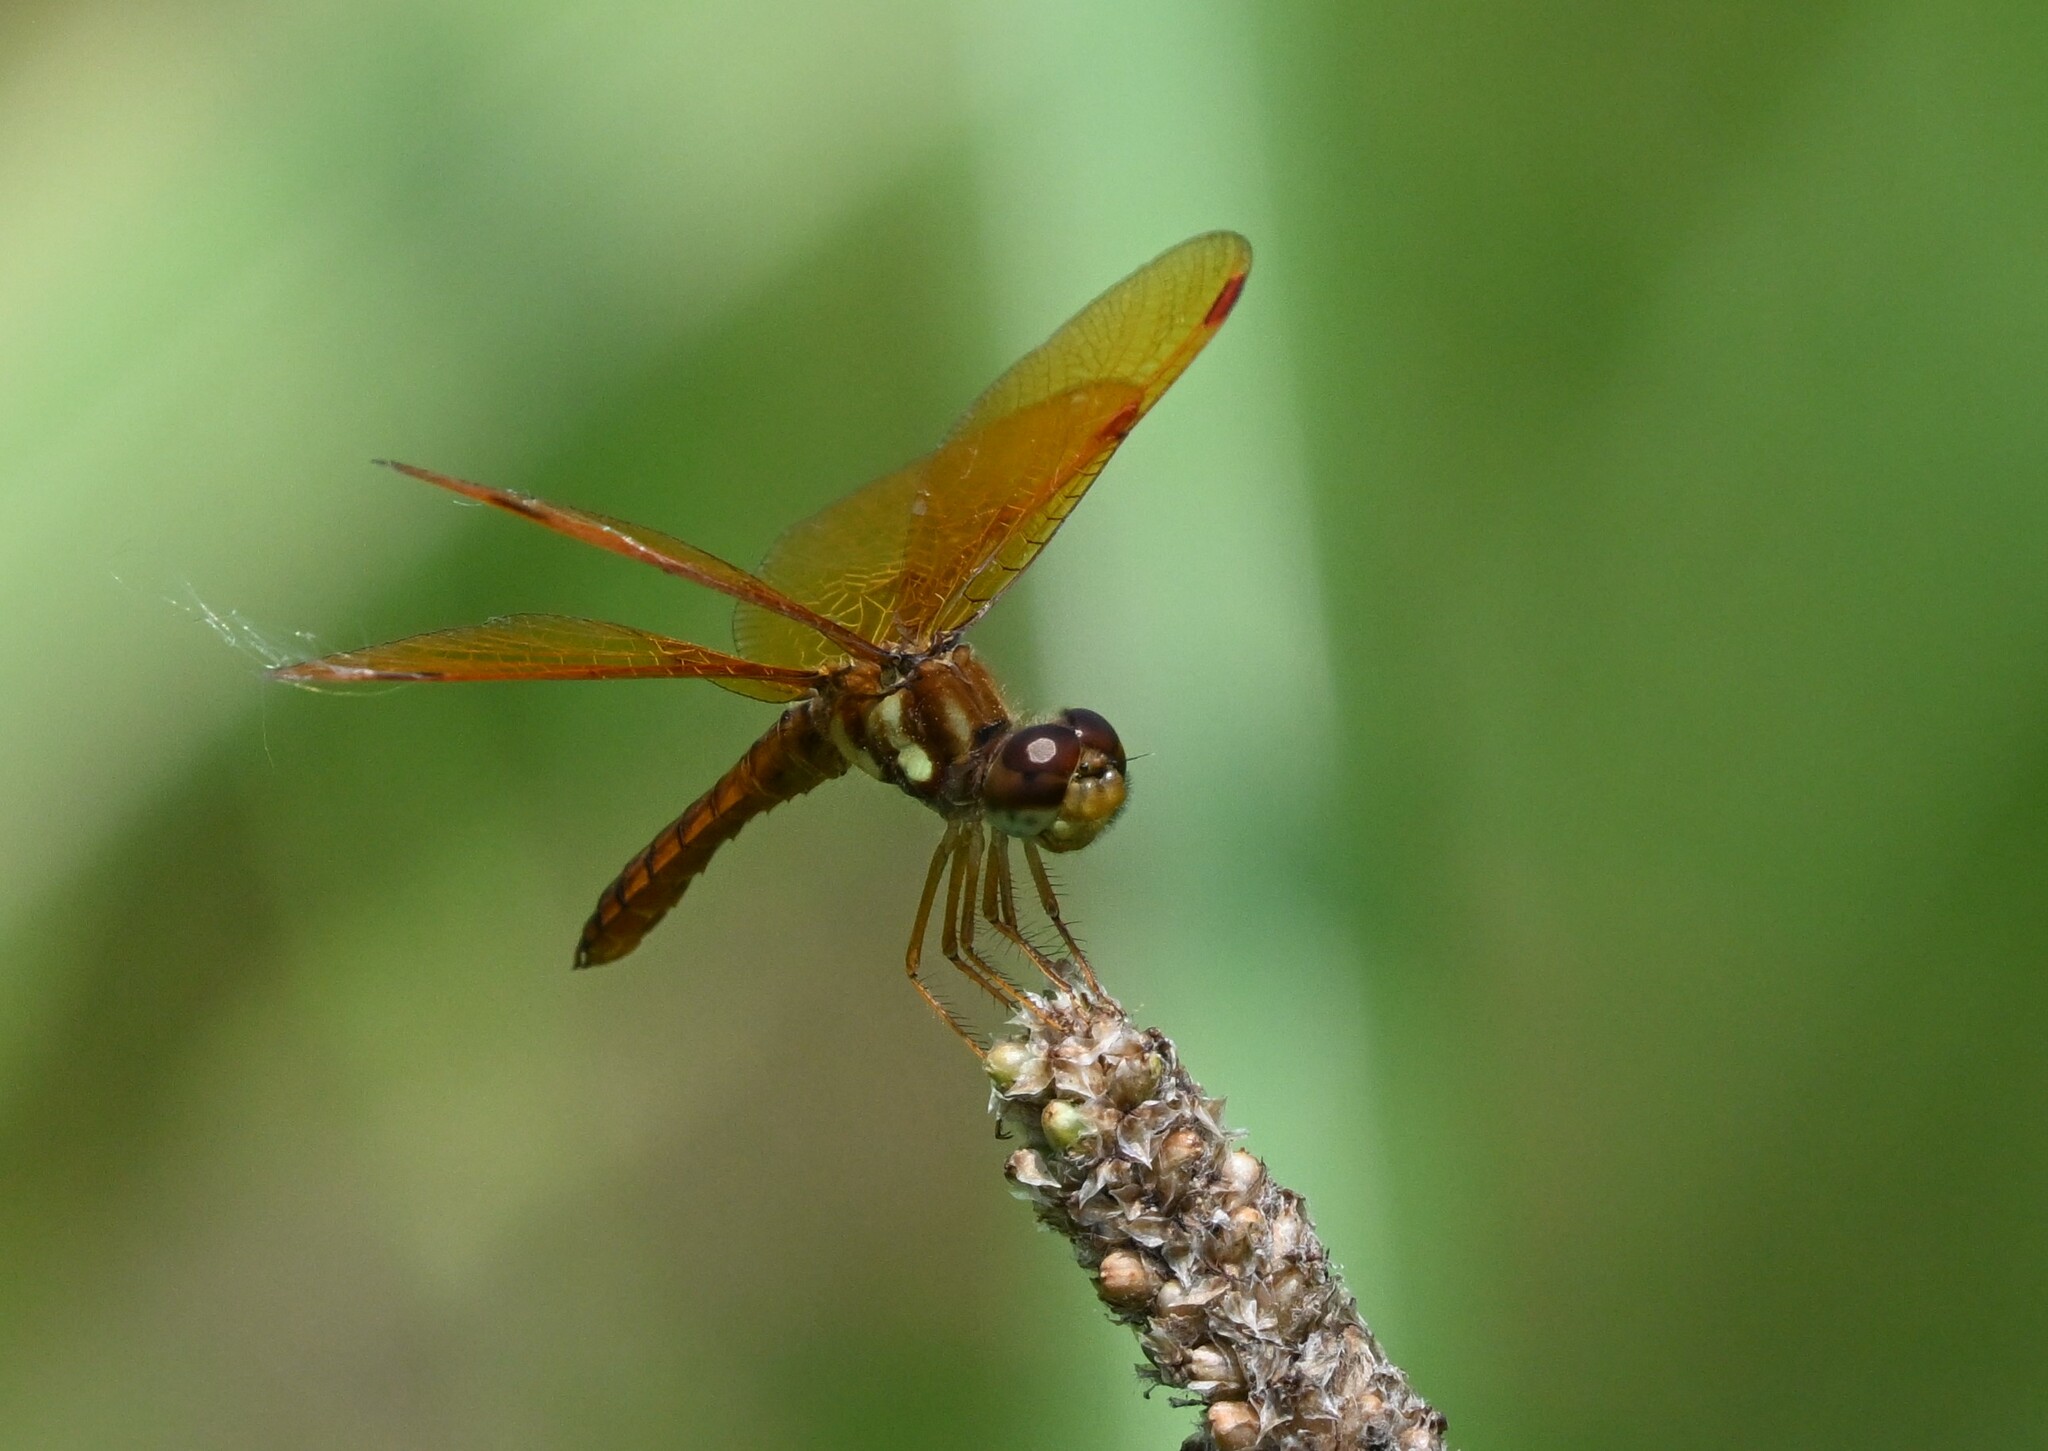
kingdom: Animalia
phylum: Arthropoda
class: Insecta
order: Odonata
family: Libellulidae
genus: Perithemis
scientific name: Perithemis tenera
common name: Eastern amberwing
